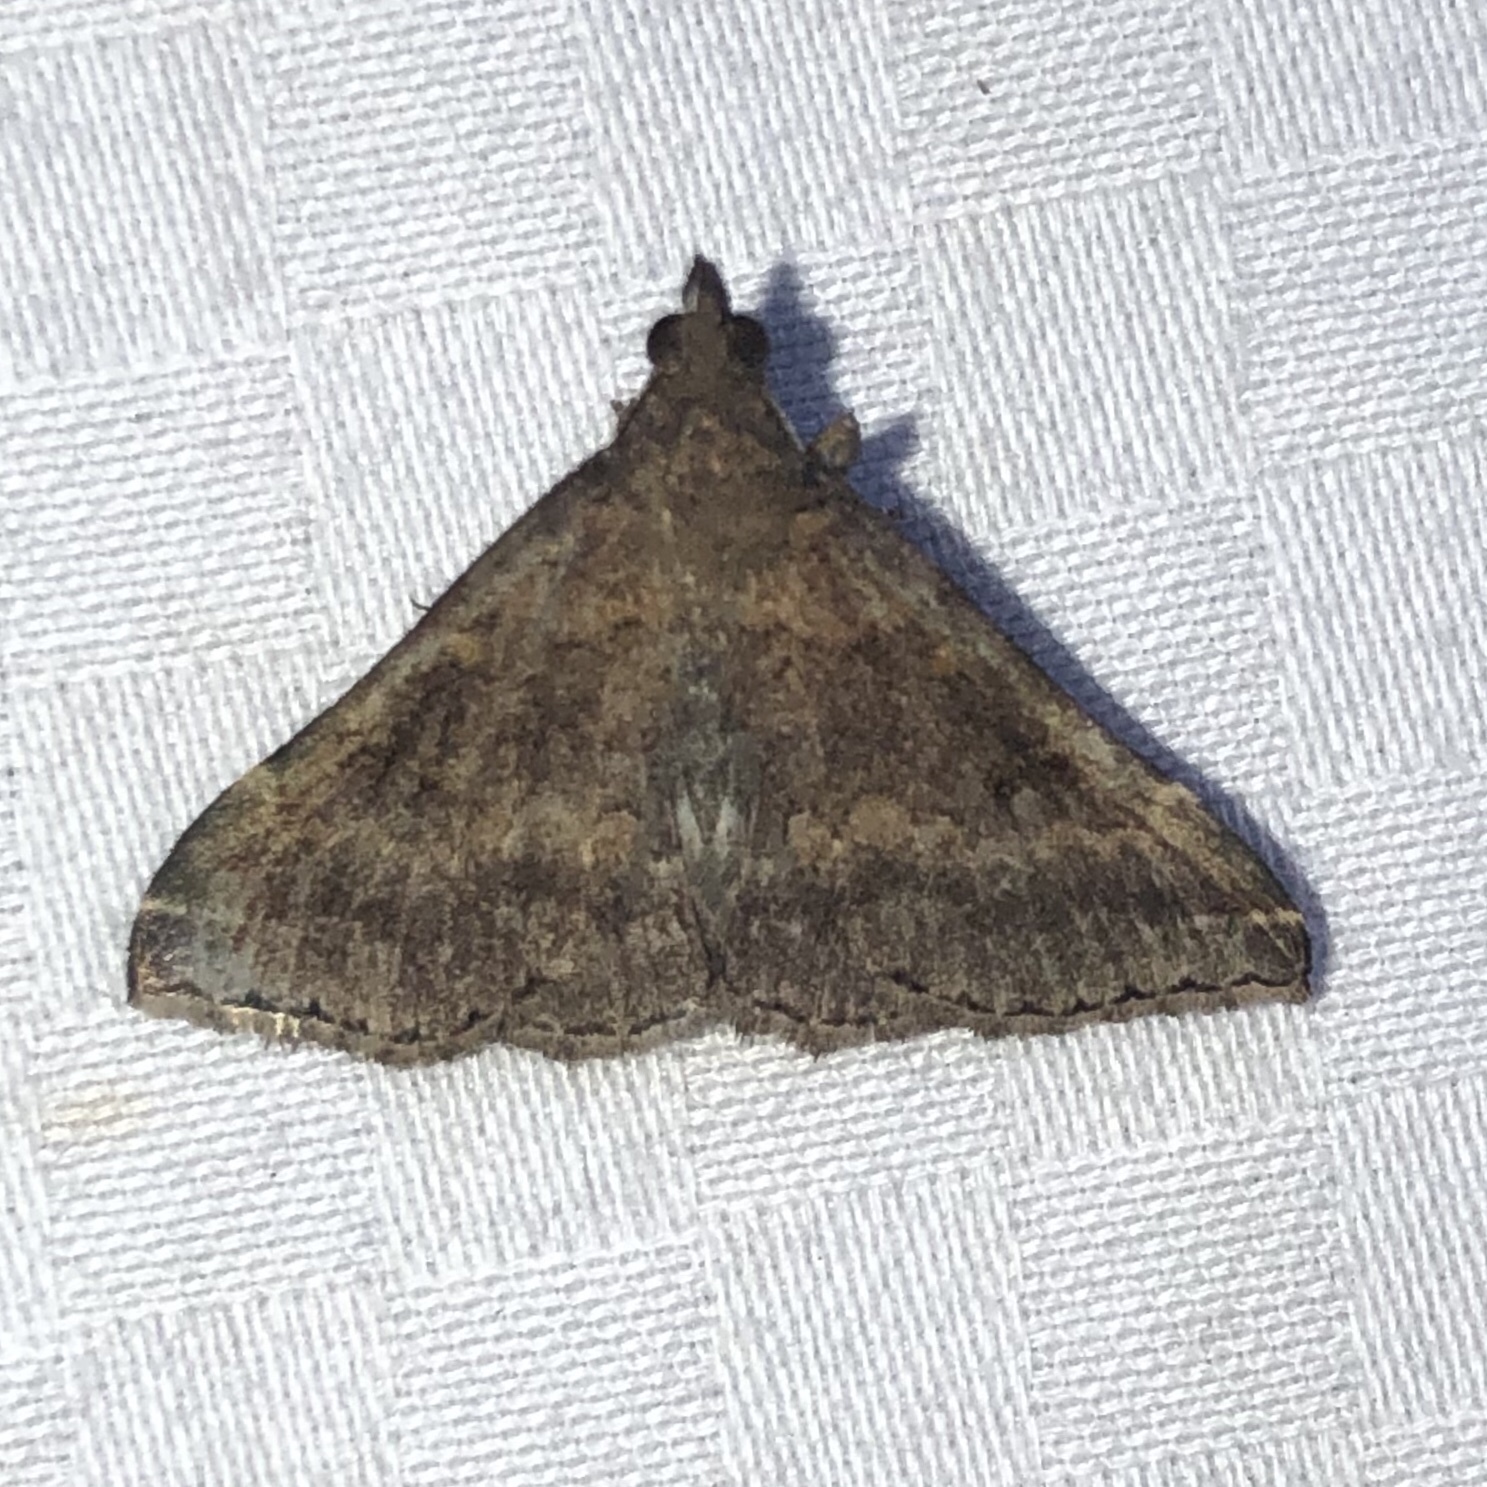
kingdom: Animalia
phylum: Arthropoda
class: Insecta
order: Lepidoptera
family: Erebidae
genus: Renia
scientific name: Renia factiosalis
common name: Sociable renia moth
